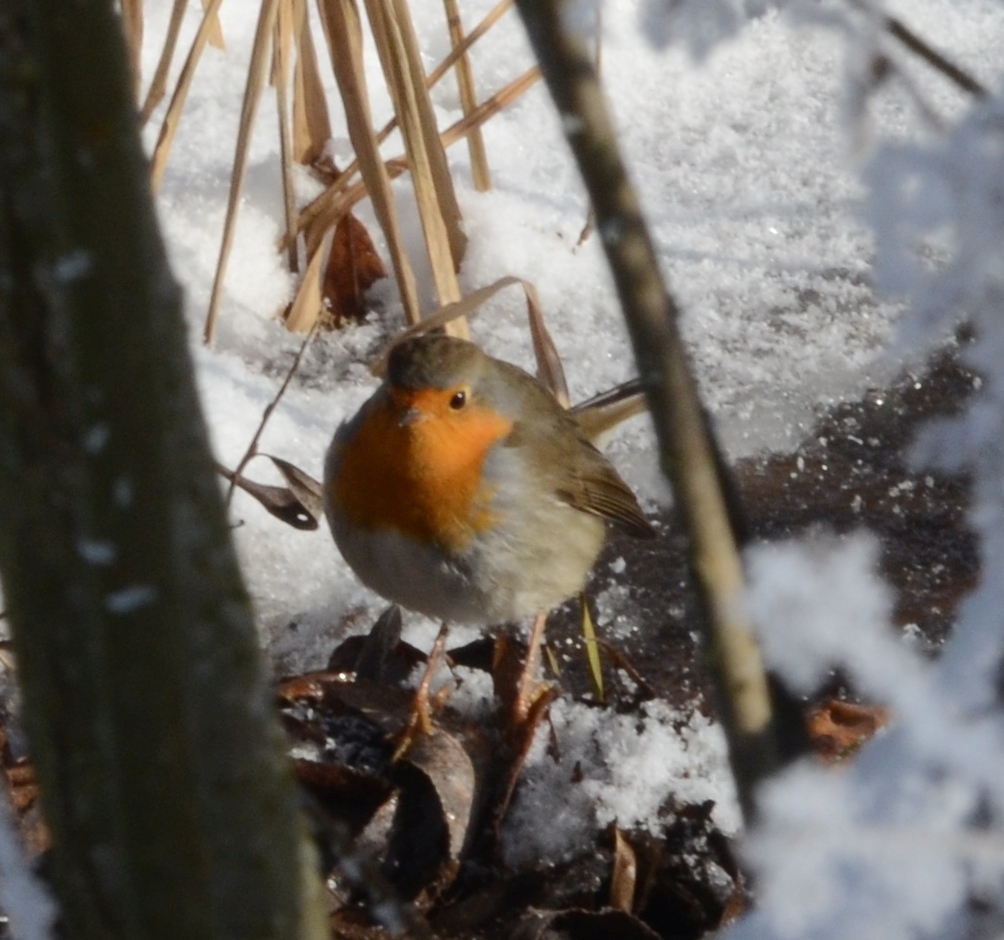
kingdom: Animalia
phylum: Chordata
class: Aves
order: Passeriformes
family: Muscicapidae
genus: Erithacus
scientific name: Erithacus rubecula
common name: European robin
